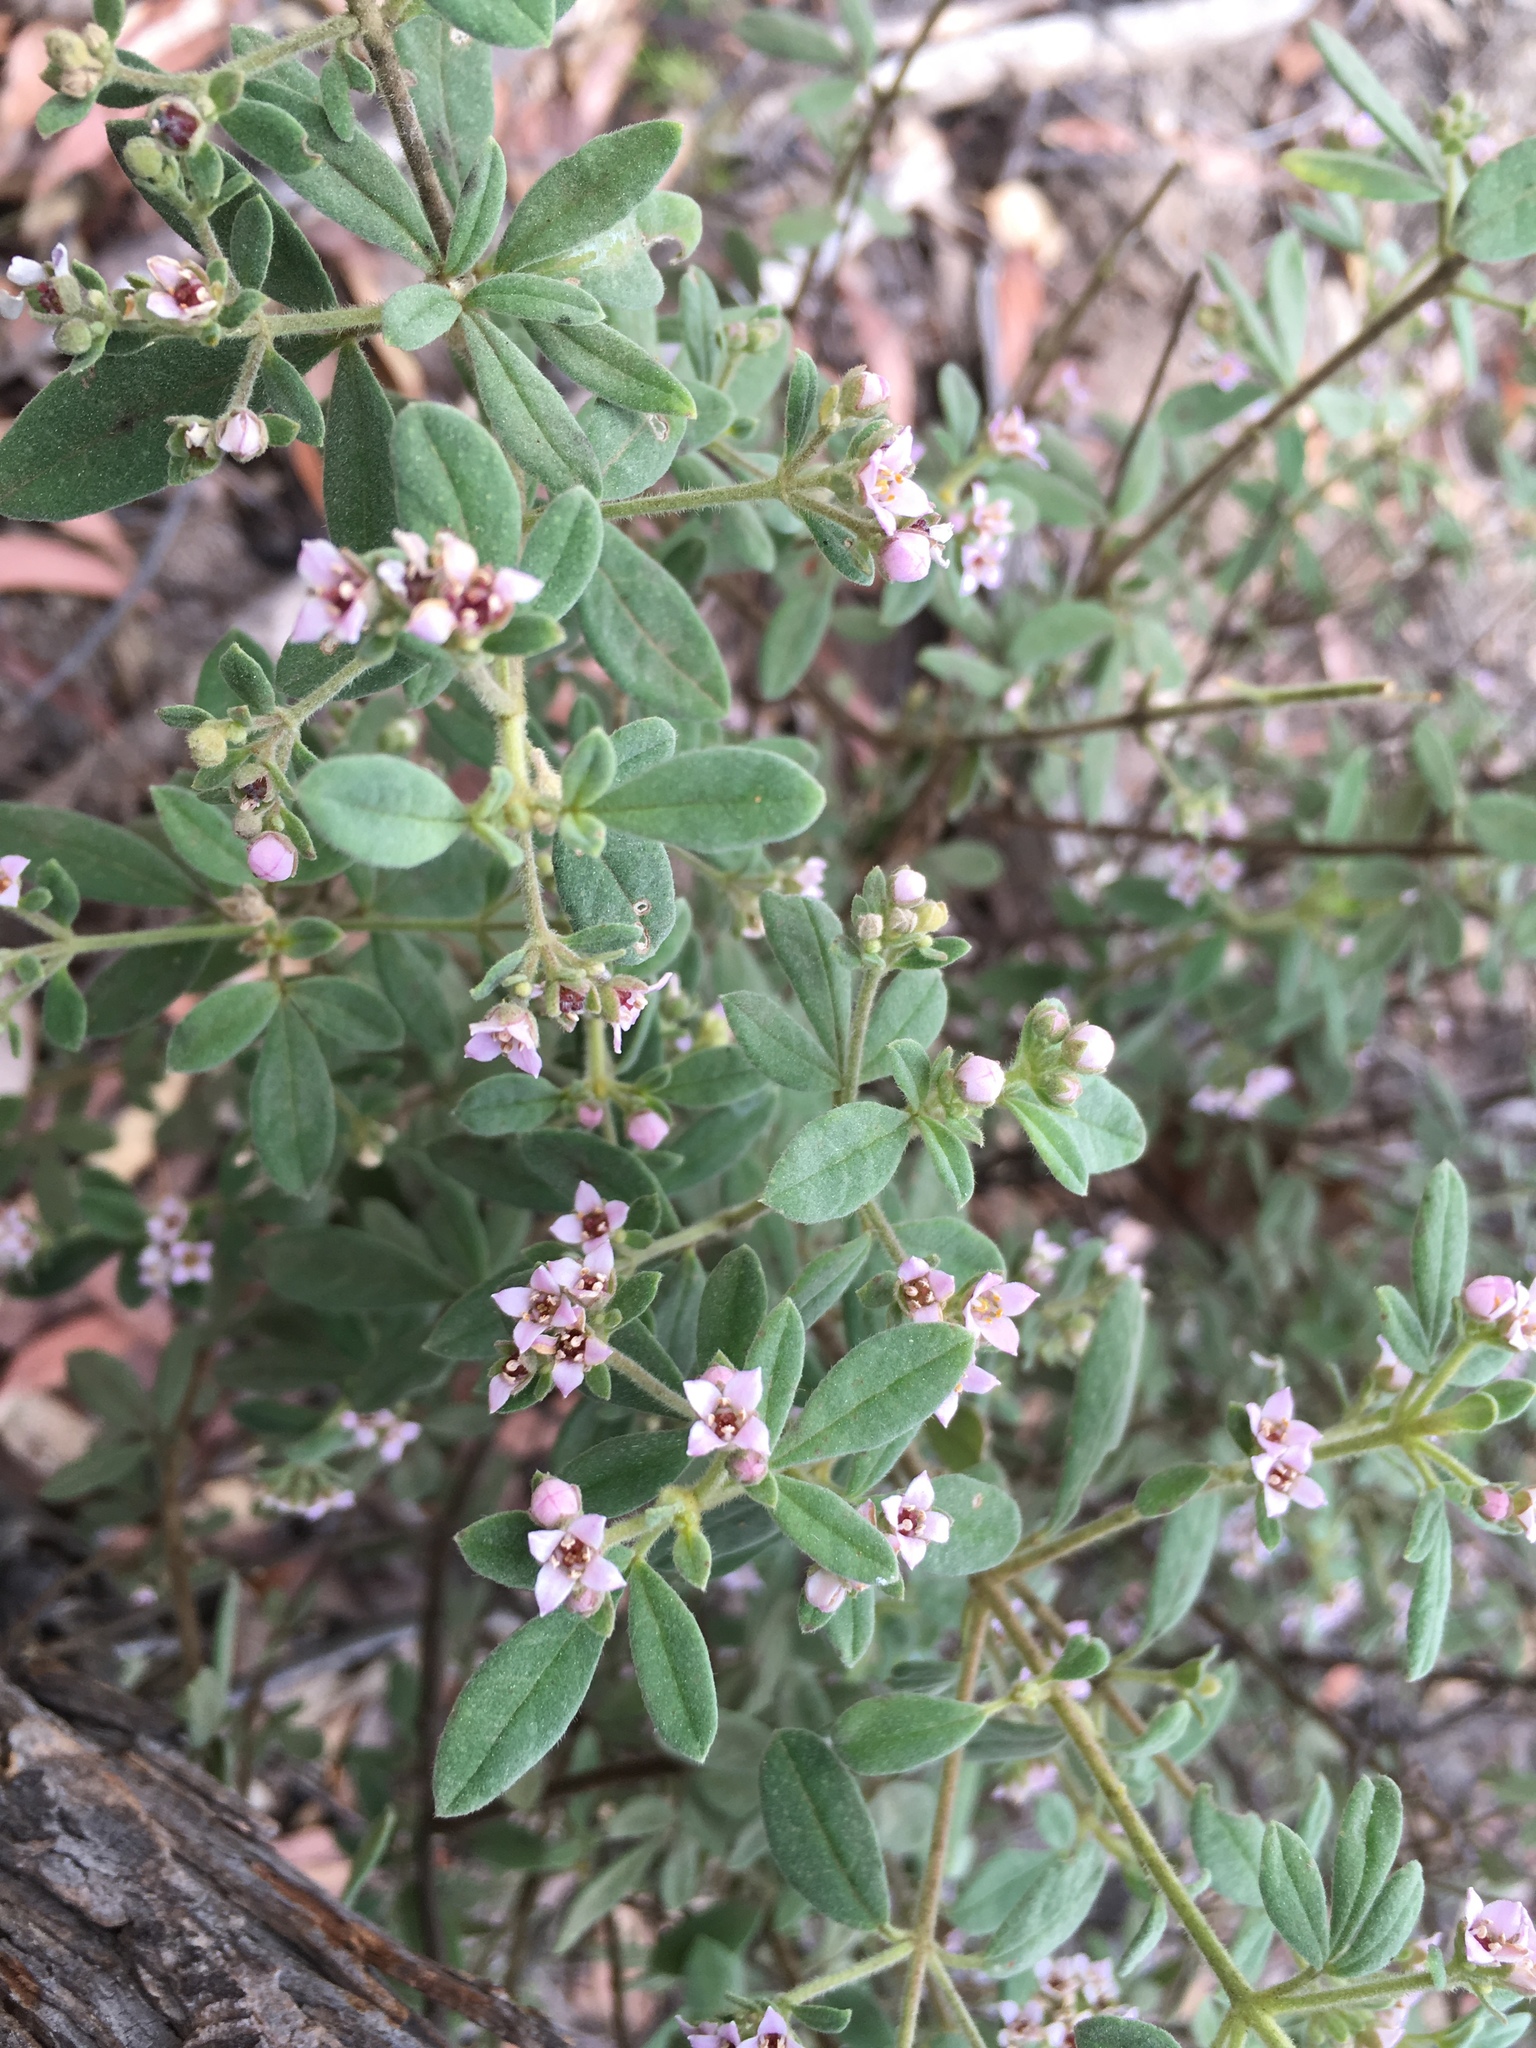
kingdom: Plantae
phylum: Tracheophyta
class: Magnoliopsida
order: Sapindales
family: Rutaceae
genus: Zieria
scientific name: Zieria cytisoides
